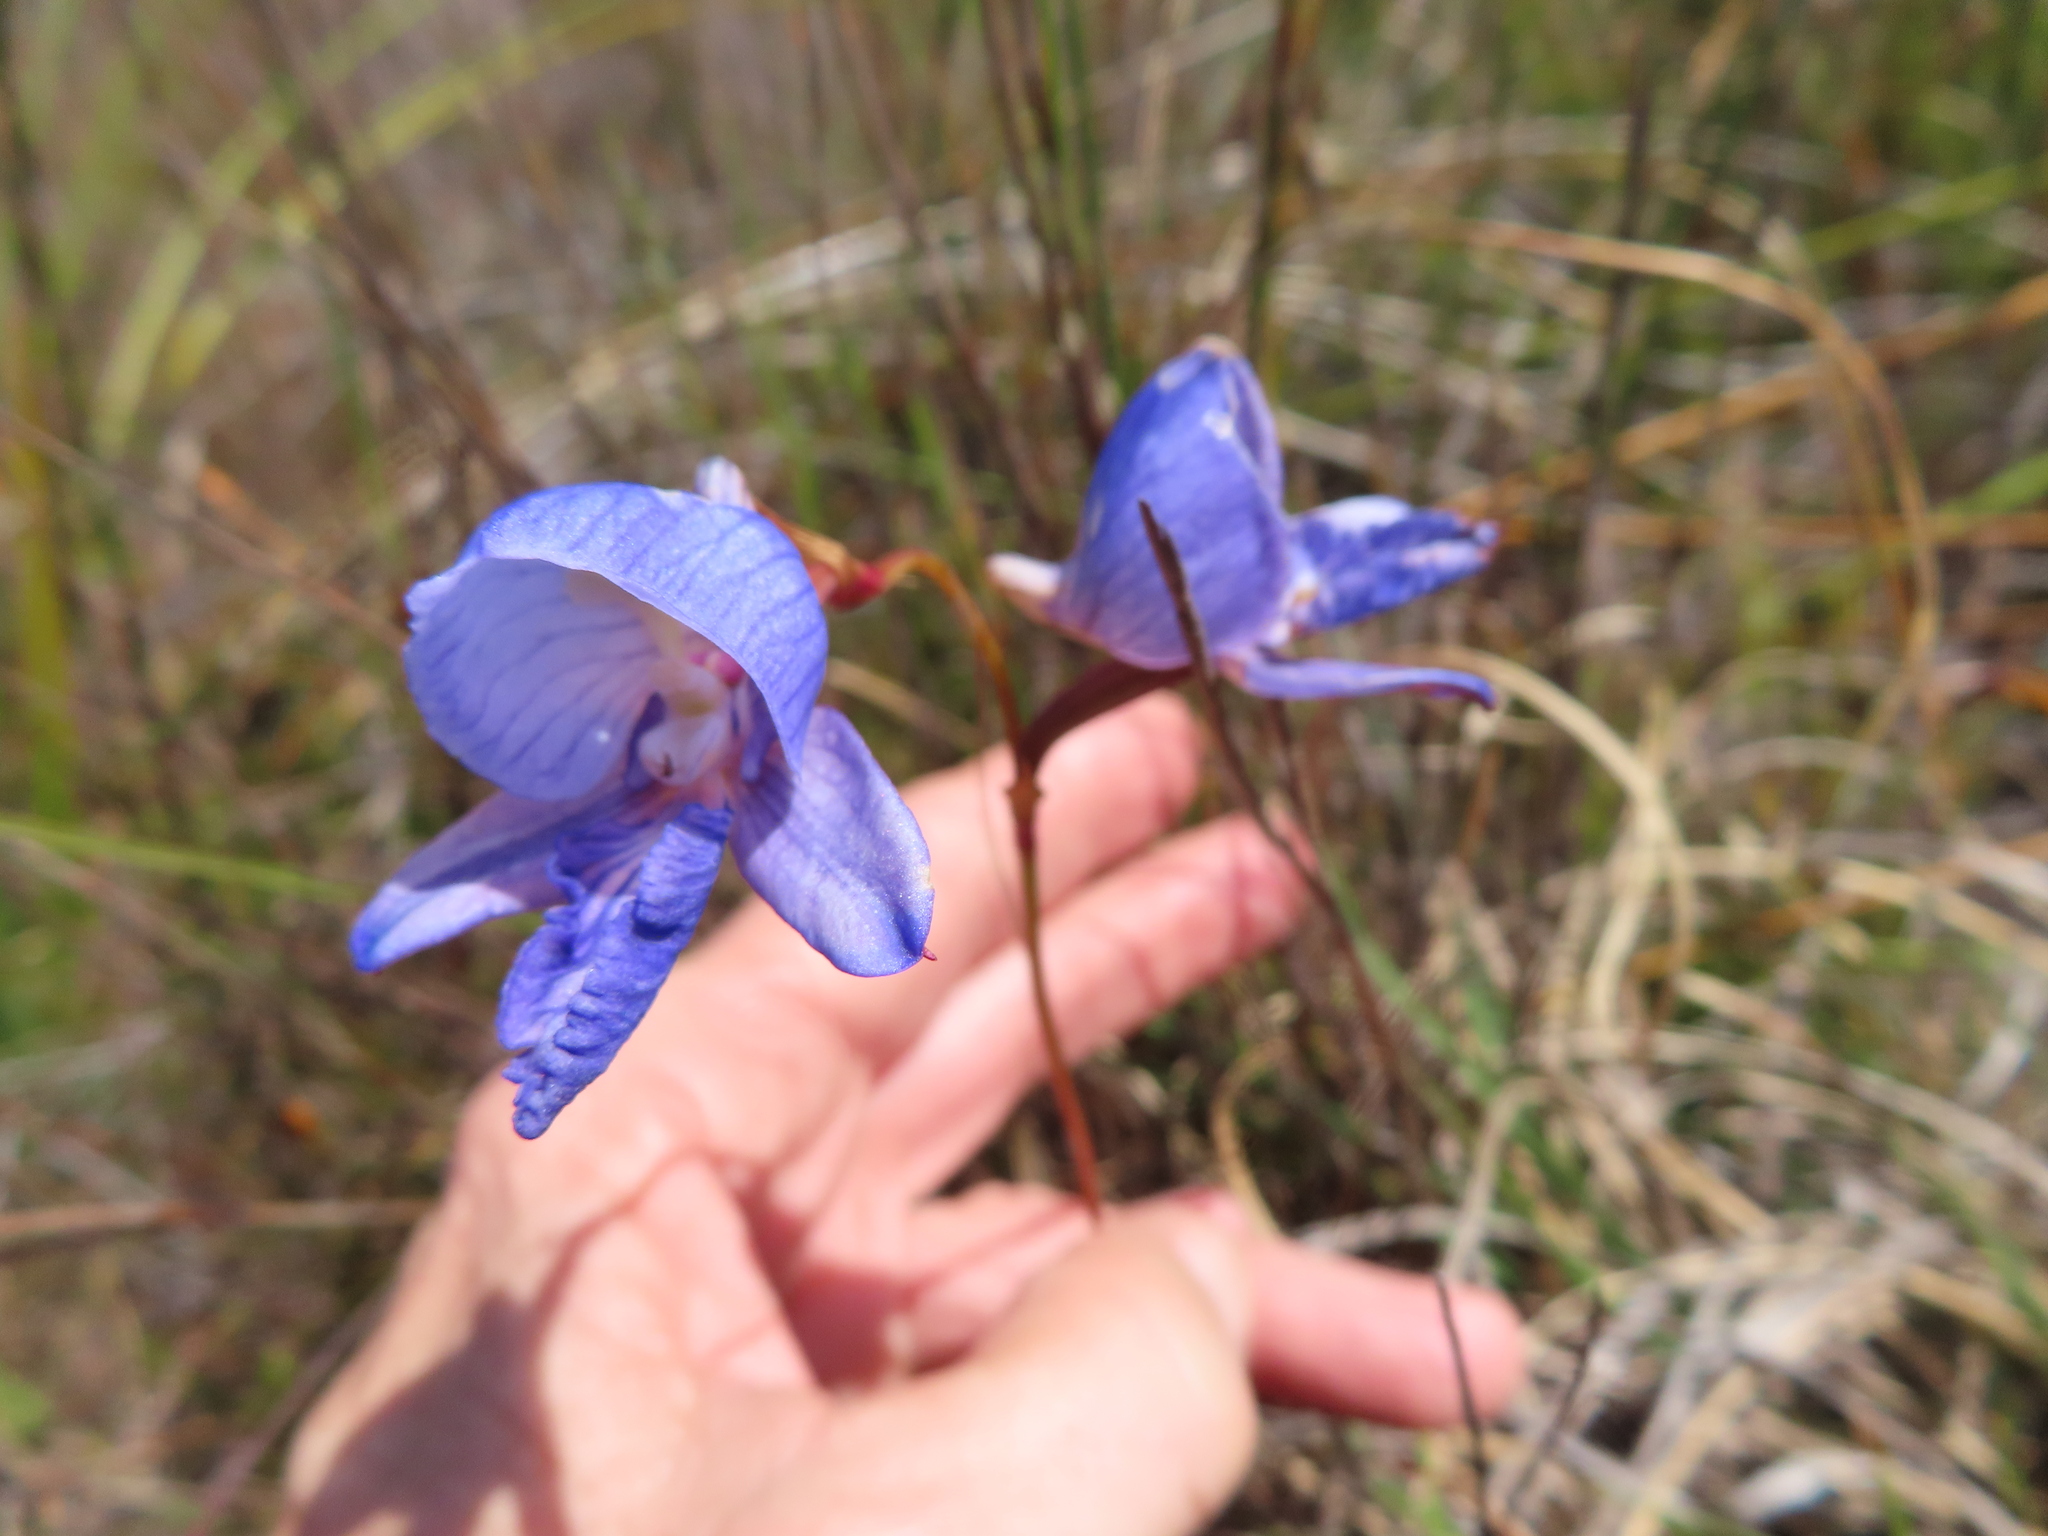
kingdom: Plantae
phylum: Tracheophyta
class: Liliopsida
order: Asparagales
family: Orchidaceae
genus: Disa
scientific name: Disa purpurascens
